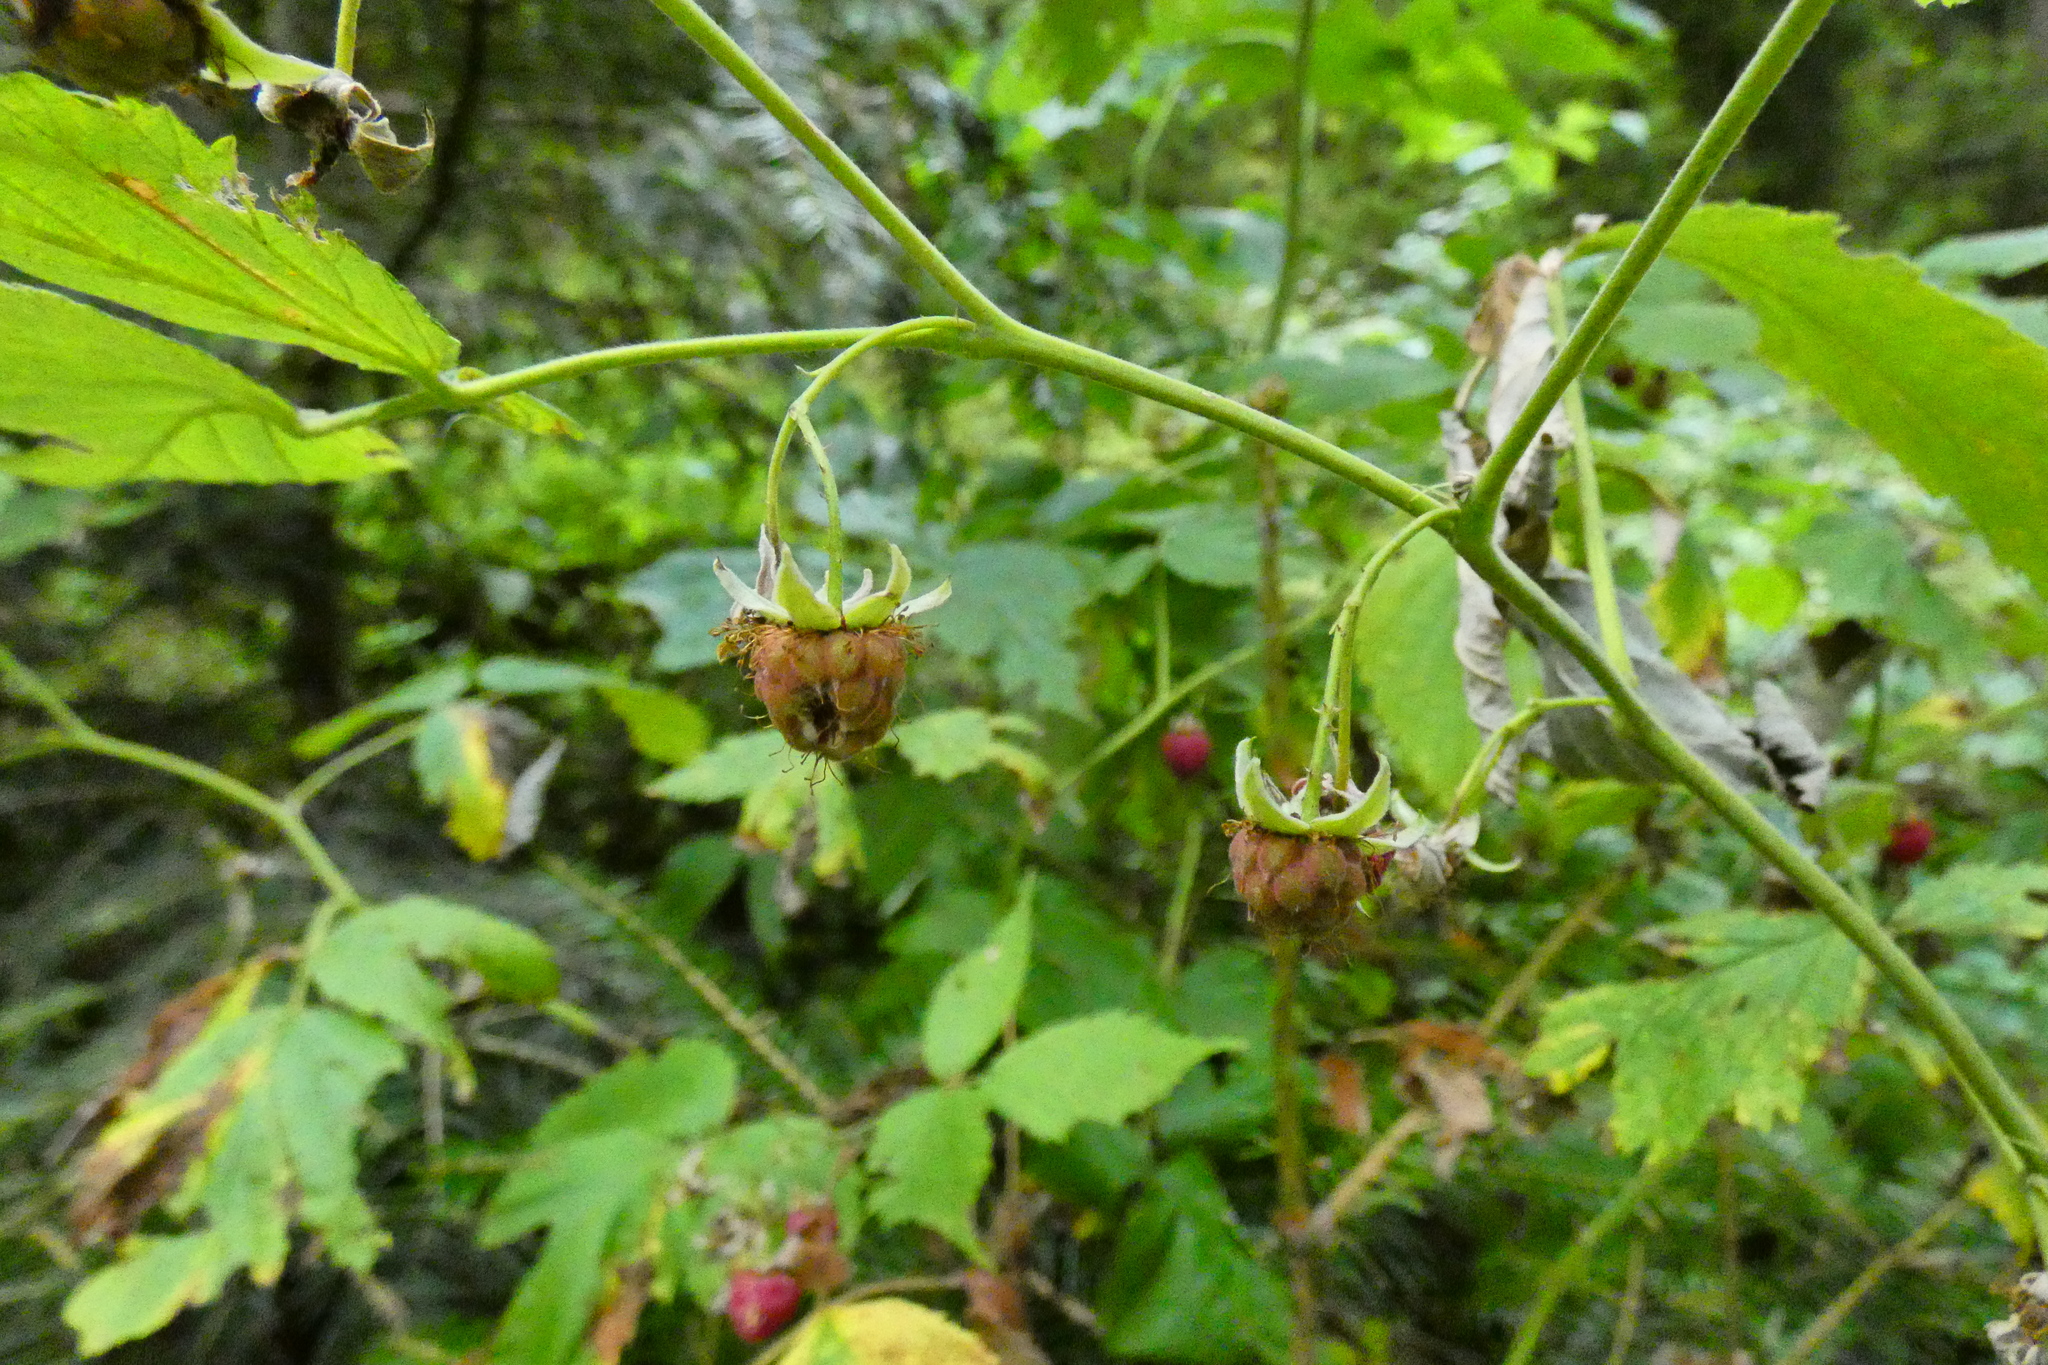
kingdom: Plantae
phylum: Tracheophyta
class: Magnoliopsida
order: Rosales
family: Rosaceae
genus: Rubus
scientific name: Rubus idaeus
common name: Raspberry
